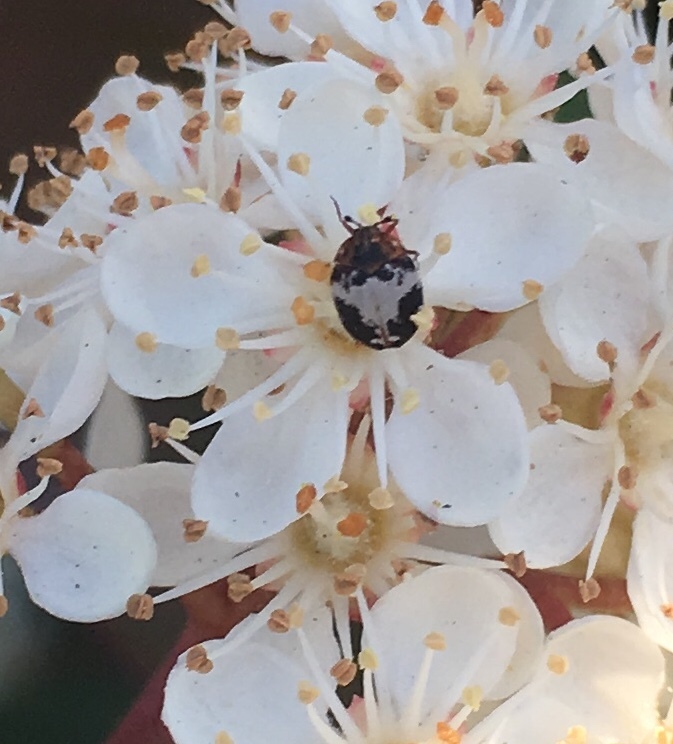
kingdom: Animalia
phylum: Arthropoda
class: Insecta
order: Coleoptera
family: Dermestidae
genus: Anthrenus
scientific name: Anthrenus sophonisba
